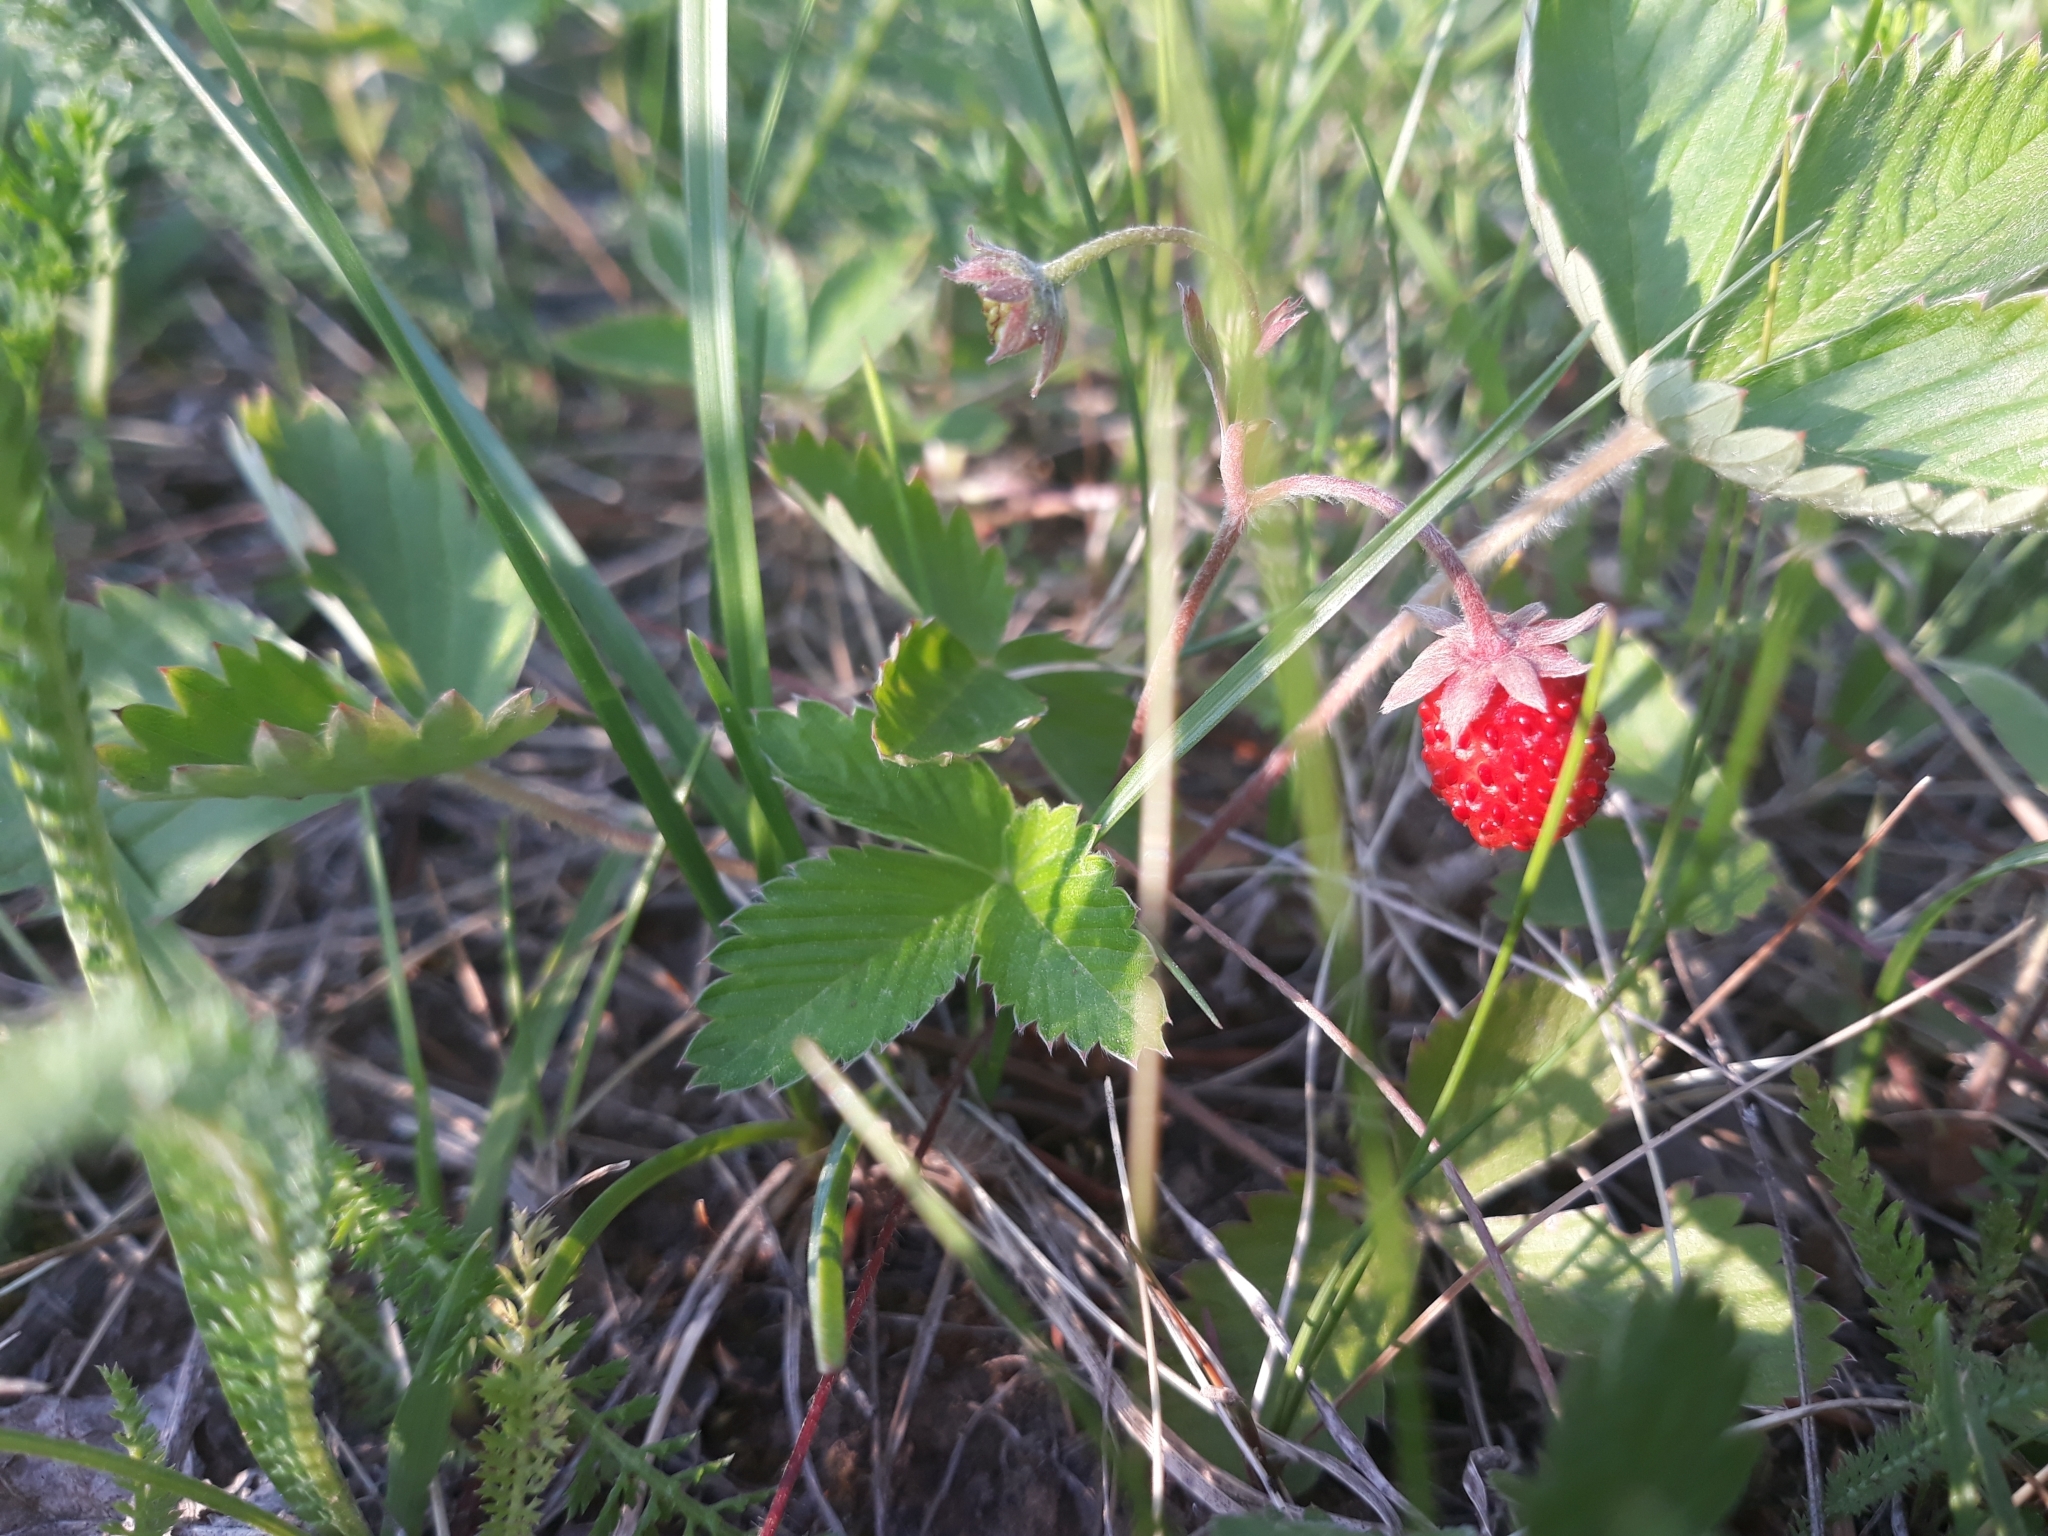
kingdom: Plantae
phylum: Tracheophyta
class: Magnoliopsida
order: Rosales
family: Rosaceae
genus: Fragaria
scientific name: Fragaria vesca
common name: Wild strawberry
